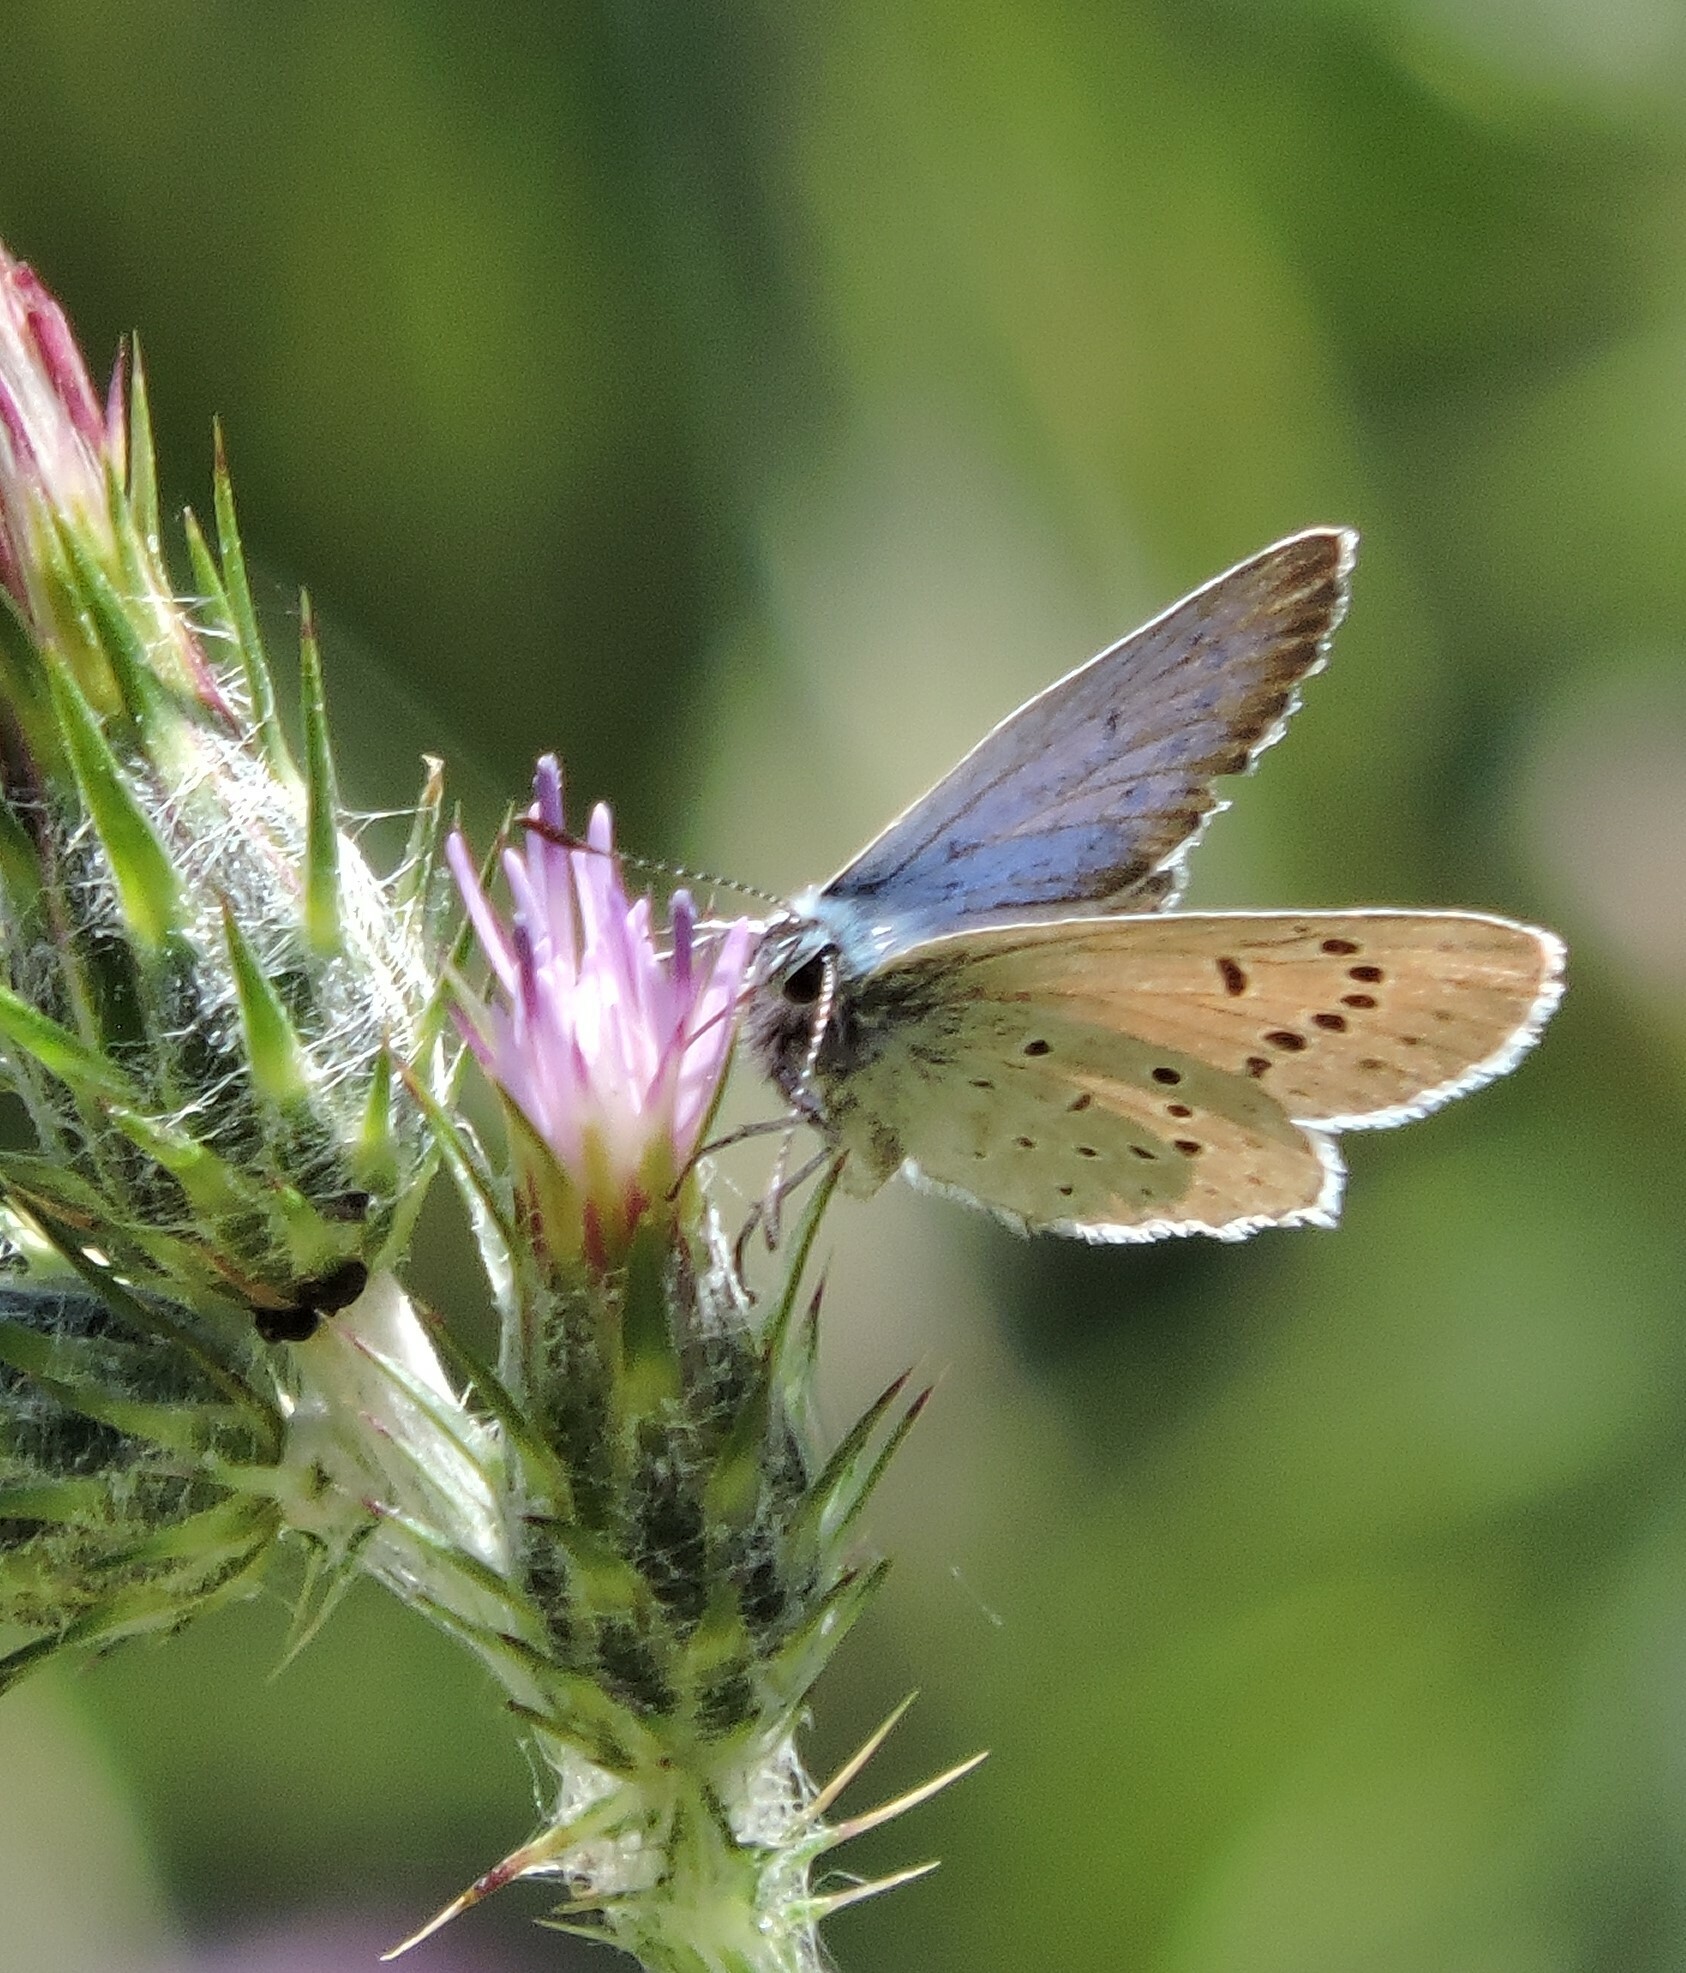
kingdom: Animalia
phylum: Arthropoda
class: Insecta
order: Lepidoptera
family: Lycaenidae
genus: Icaricia
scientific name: Icaricia icarioides
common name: Boisduval's blue
